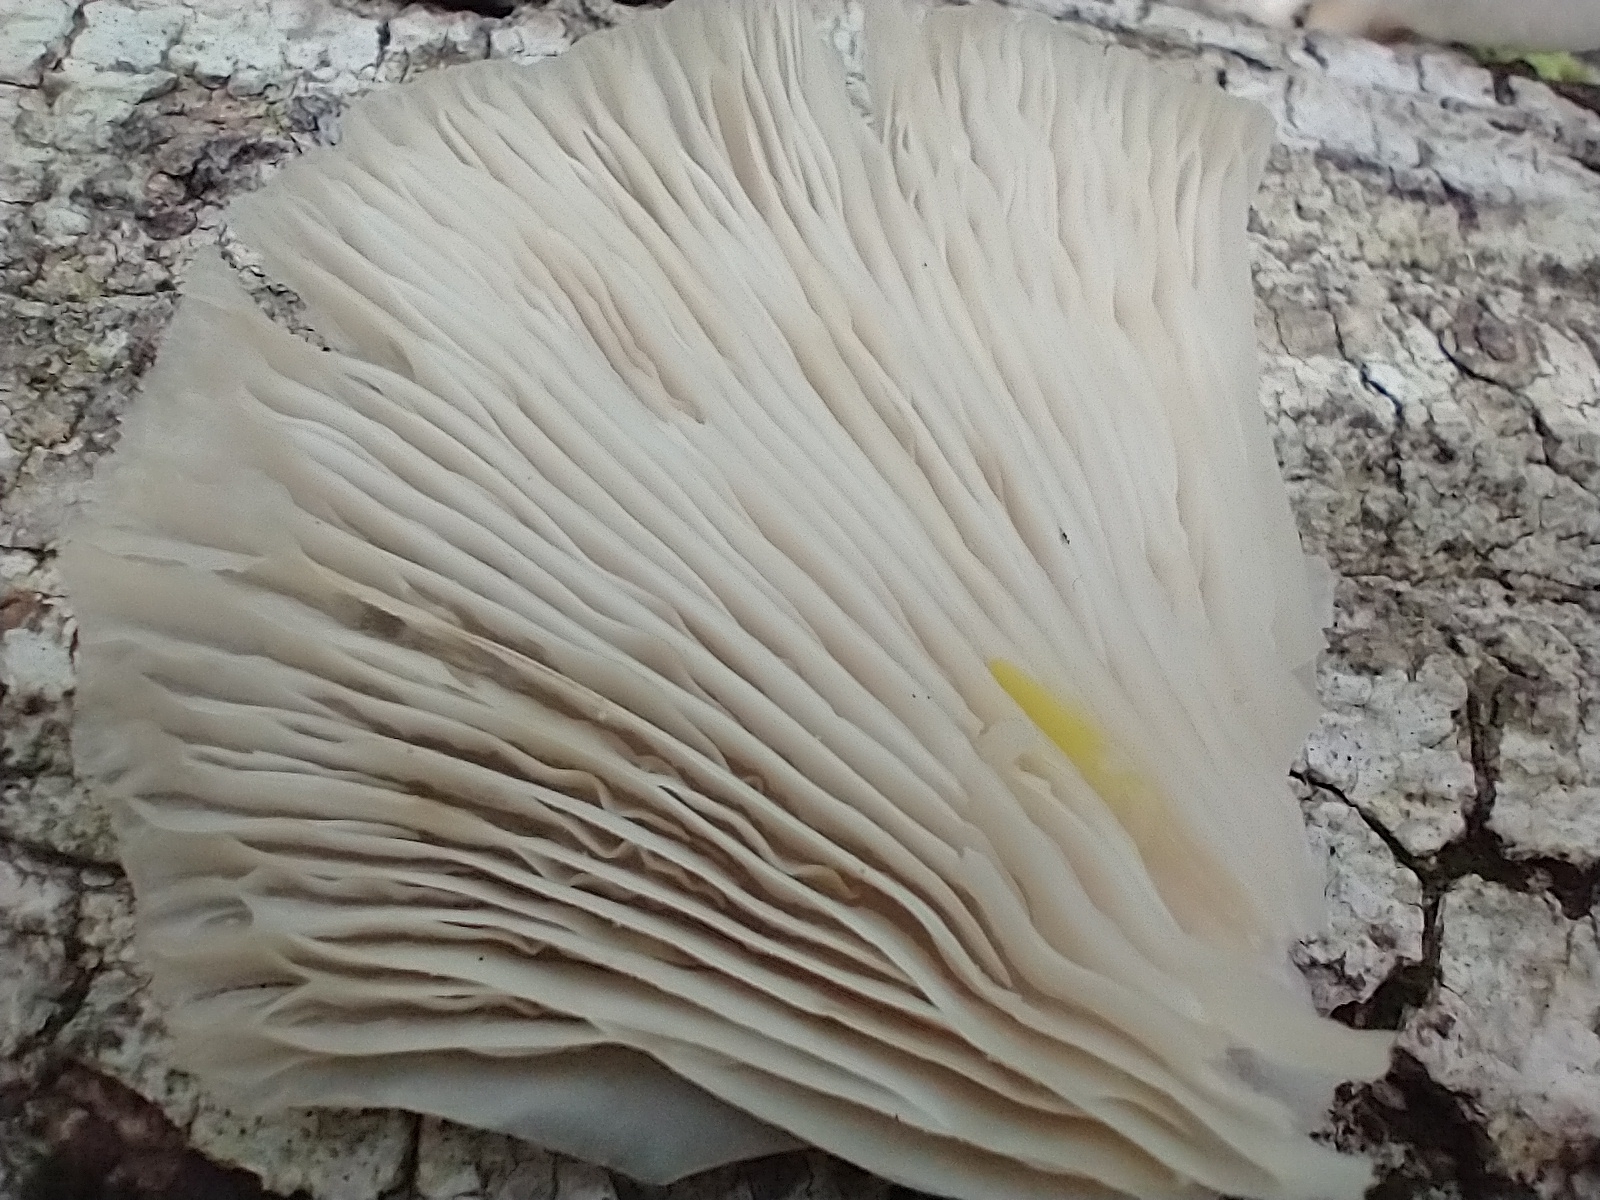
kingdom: Fungi
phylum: Basidiomycota
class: Agaricomycetes
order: Agaricales
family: Pleurotaceae
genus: Pleurotus
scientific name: Pleurotus pulmonarius
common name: Pale oyster
